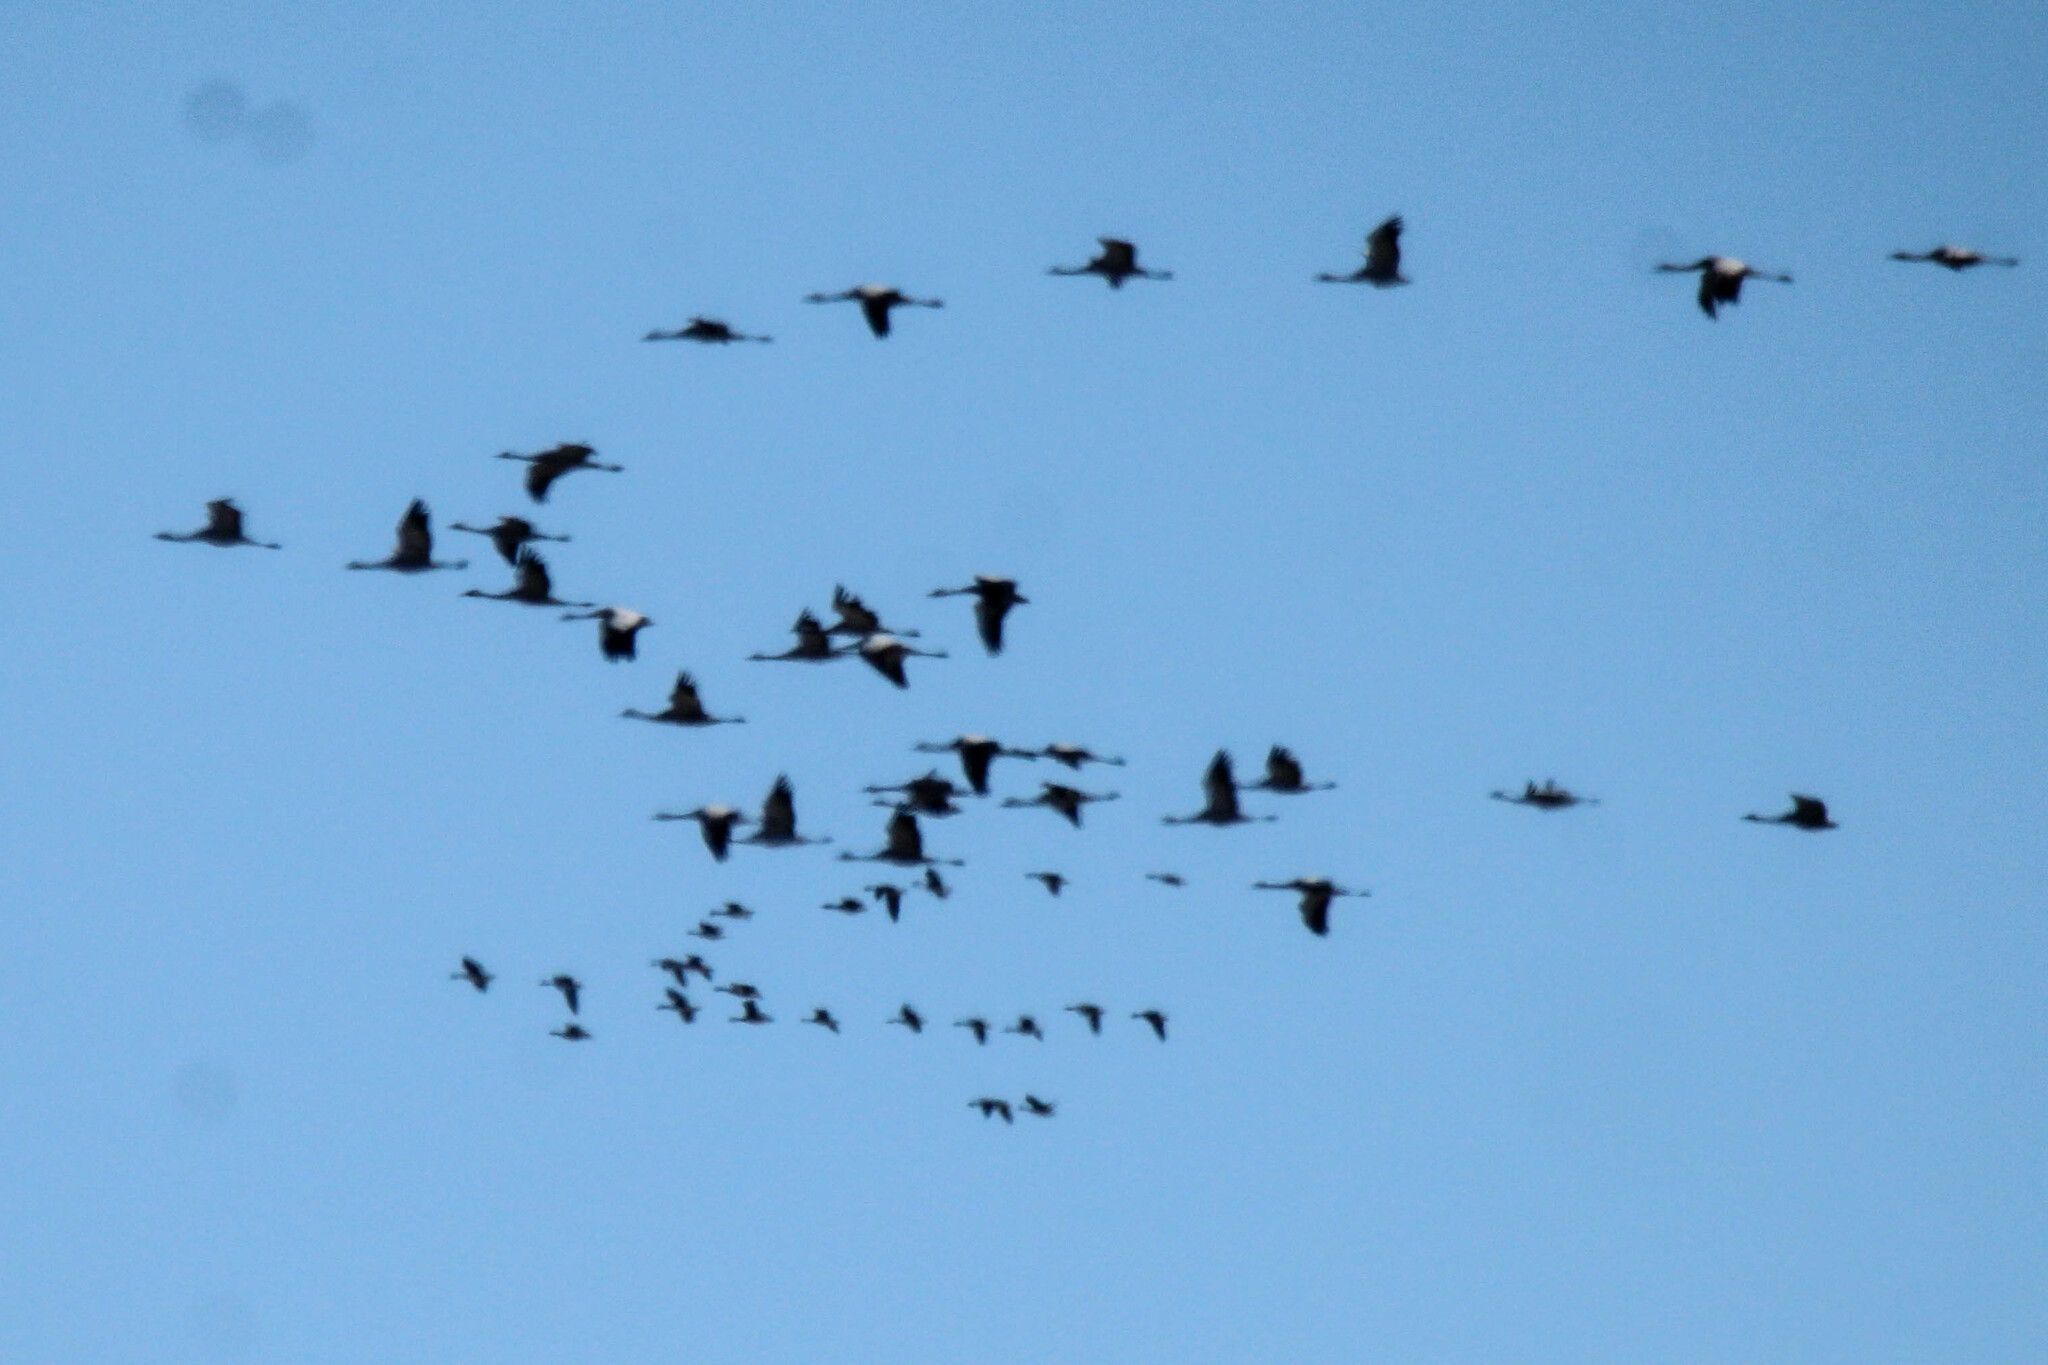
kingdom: Animalia
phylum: Chordata
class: Aves
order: Gruiformes
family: Gruidae
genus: Grus
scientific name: Grus grus
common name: Common crane
